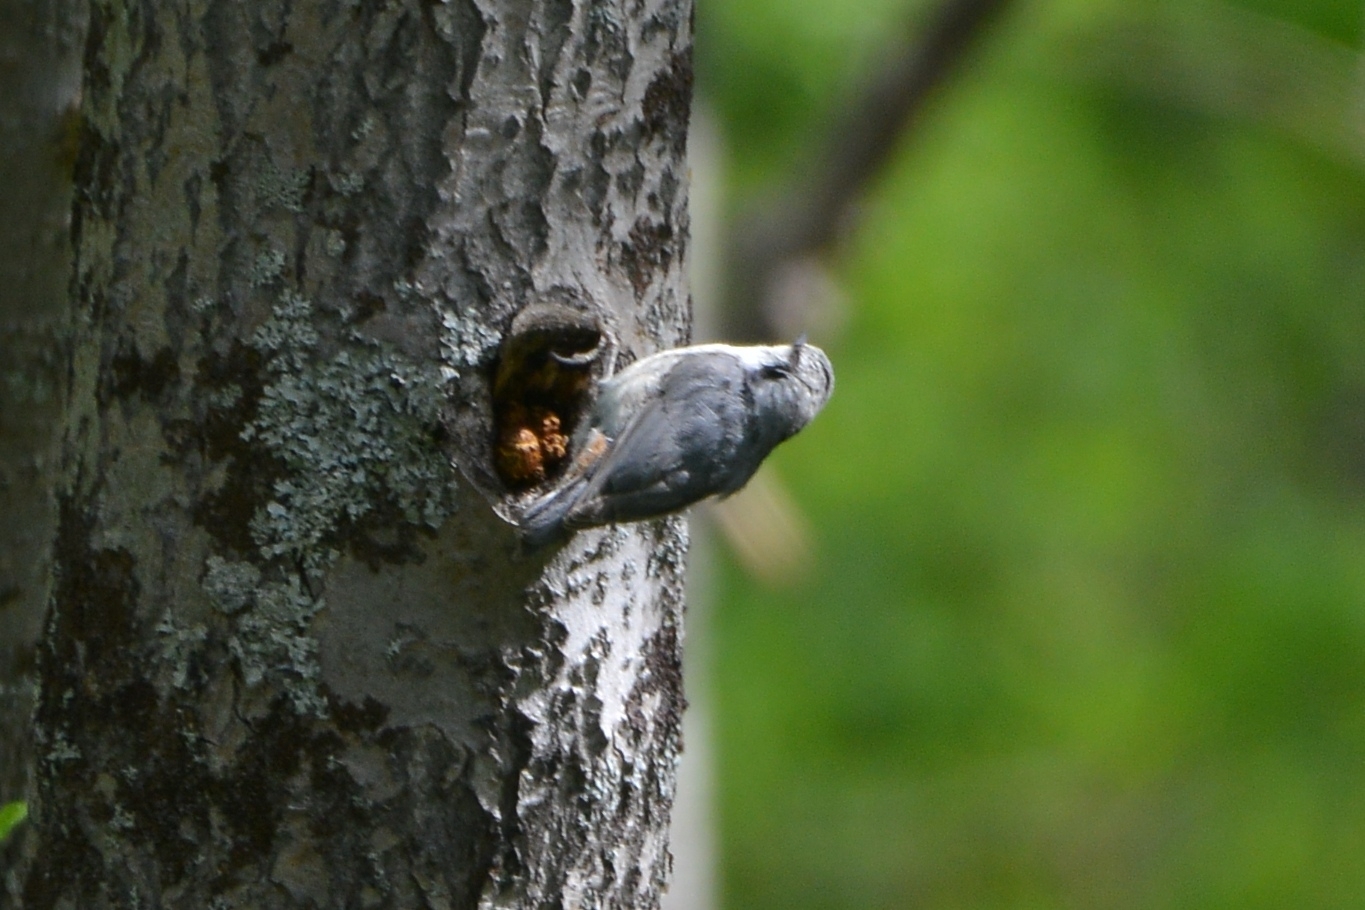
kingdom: Animalia
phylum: Chordata
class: Aves
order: Passeriformes
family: Sittidae
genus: Sitta
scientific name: Sitta europaea
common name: Eurasian nuthatch
